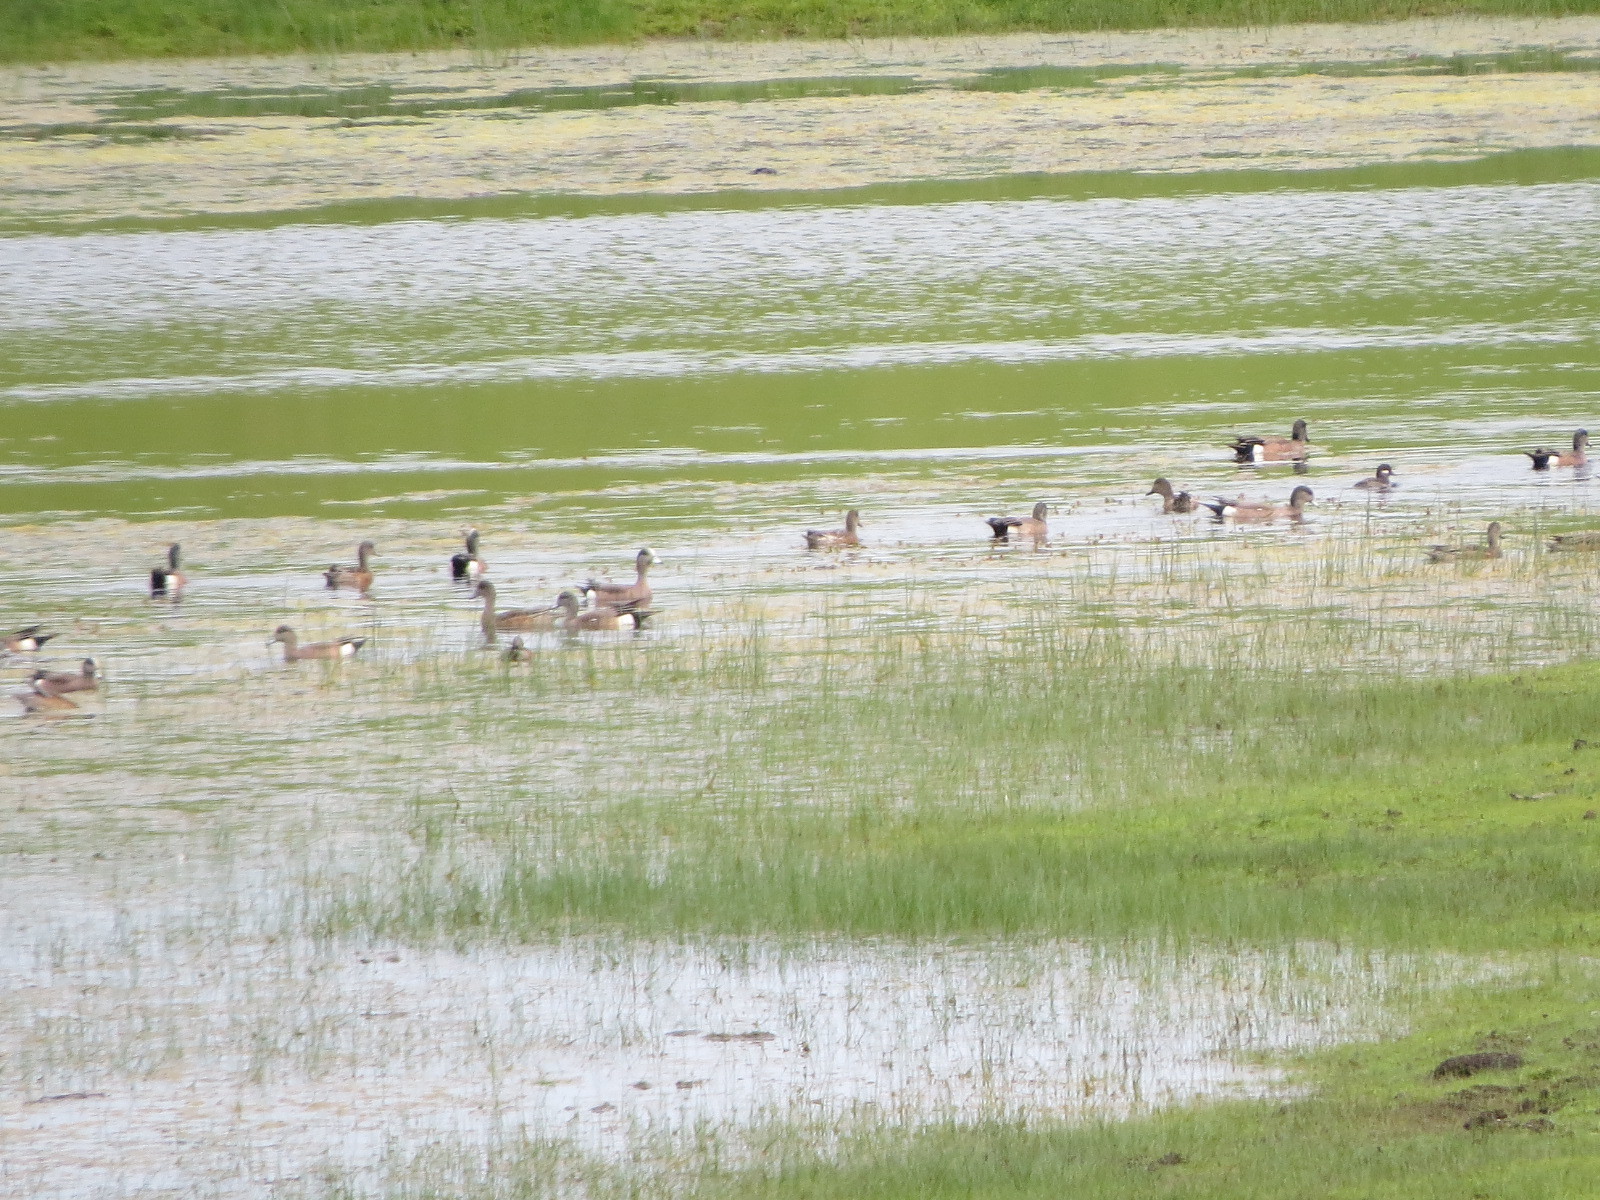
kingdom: Animalia
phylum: Chordata
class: Aves
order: Anseriformes
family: Anatidae
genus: Mareca
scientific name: Mareca americana
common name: American wigeon
